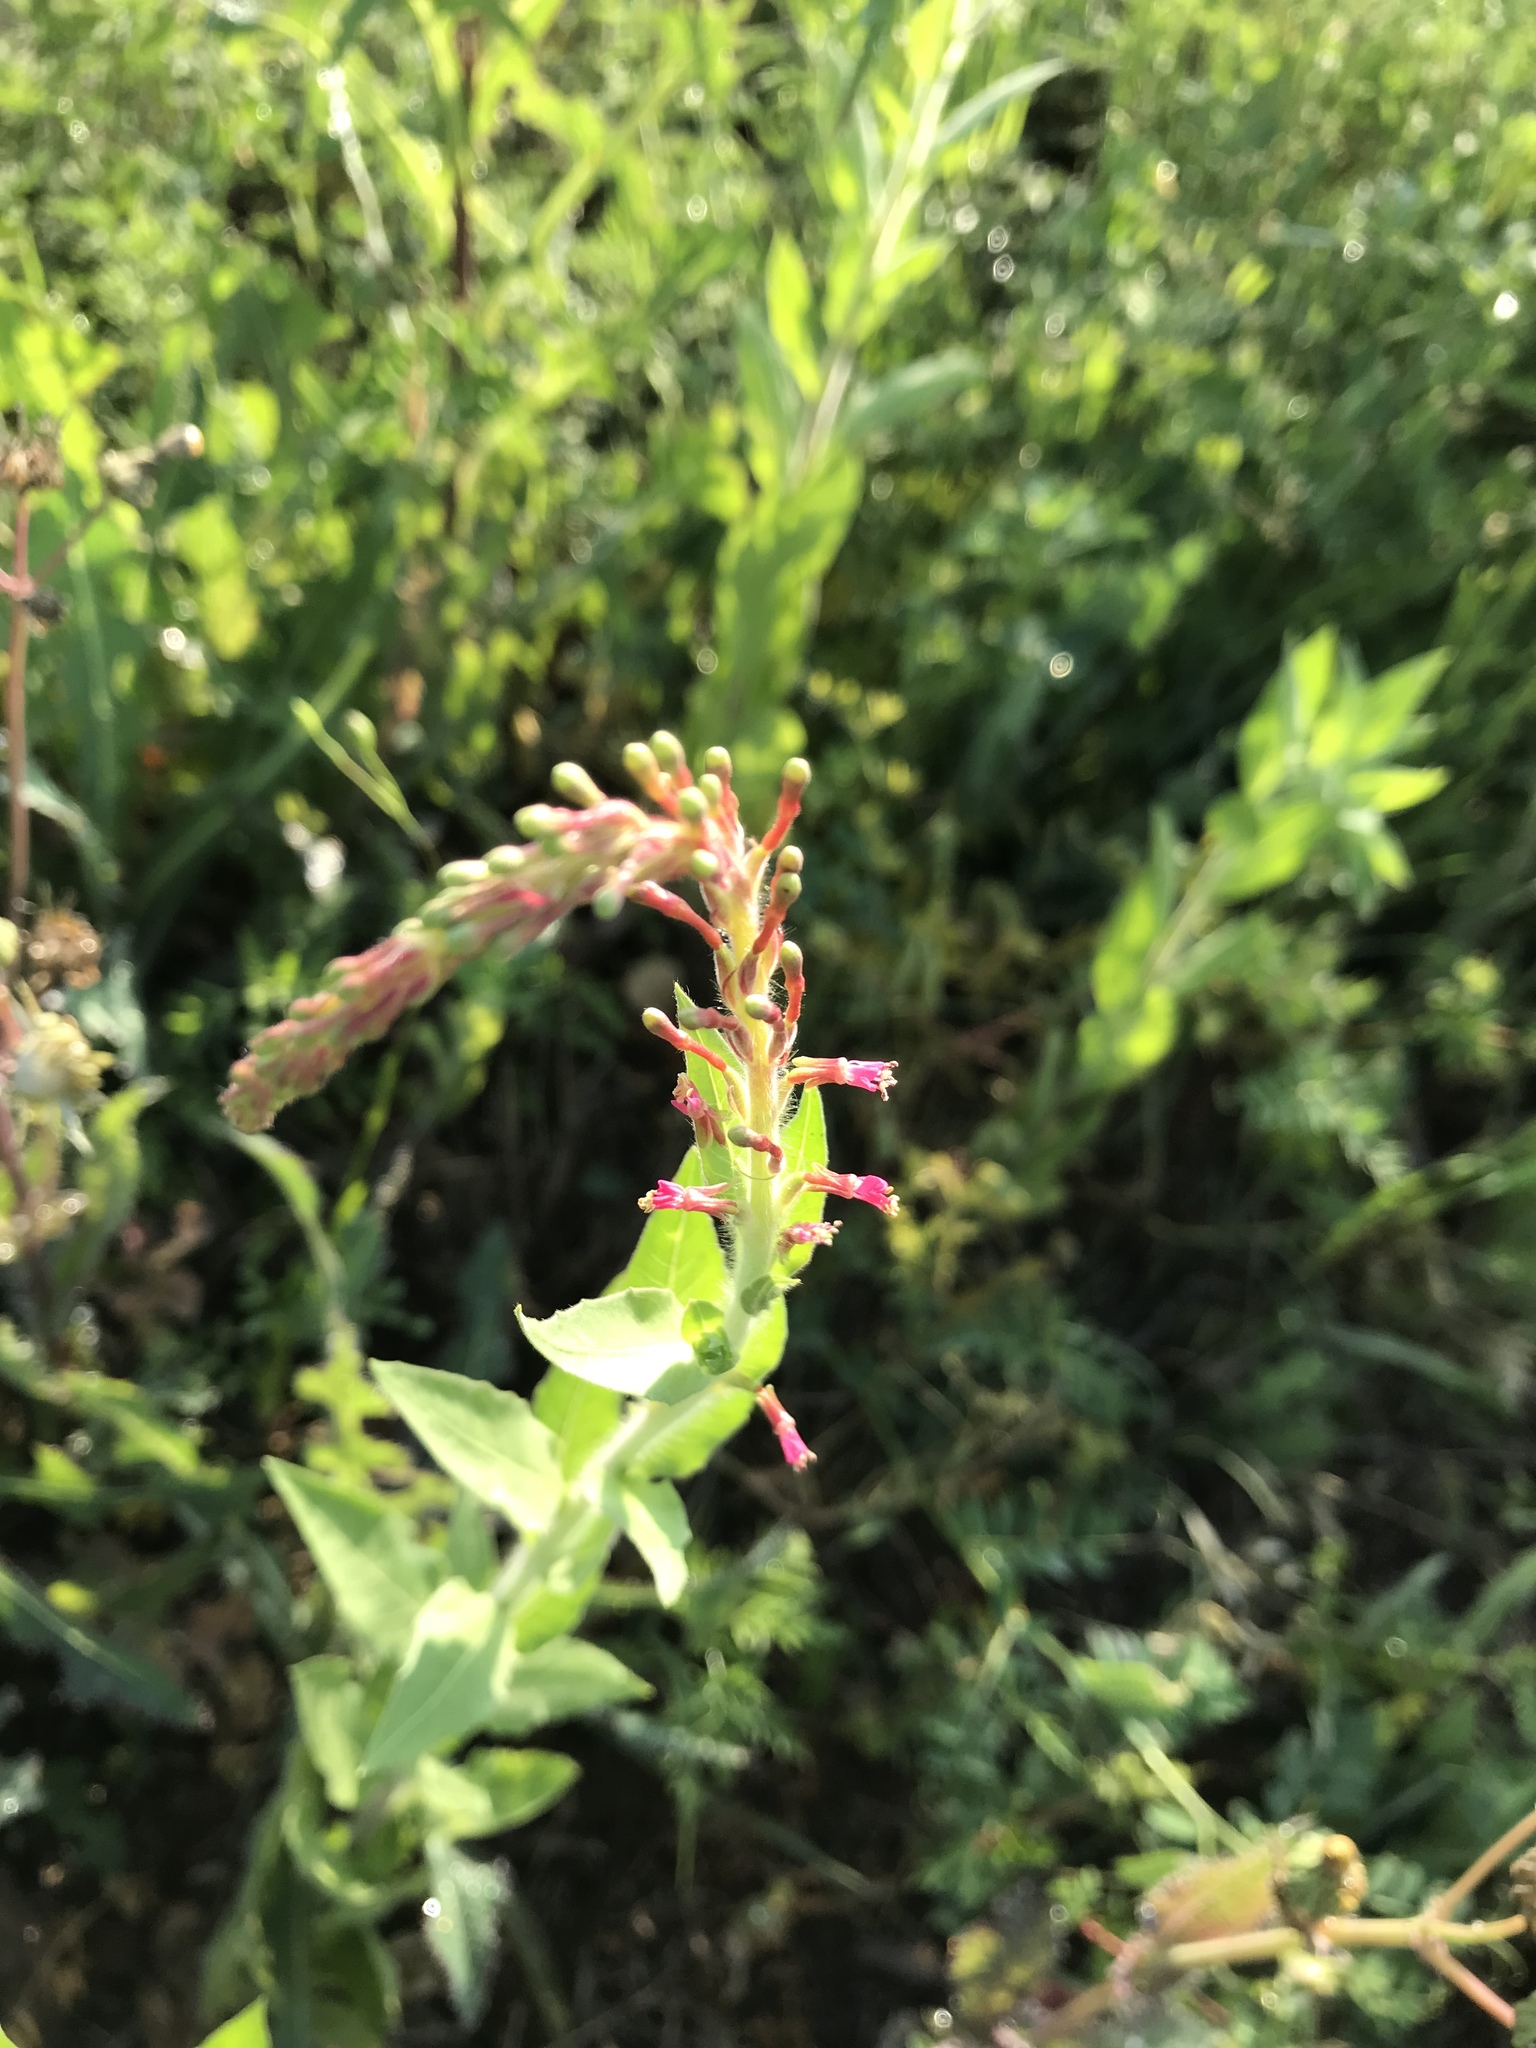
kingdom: Plantae
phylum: Tracheophyta
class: Magnoliopsida
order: Myrtales
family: Onagraceae
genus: Oenothera
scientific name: Oenothera curtiflora
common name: Velvetweed
